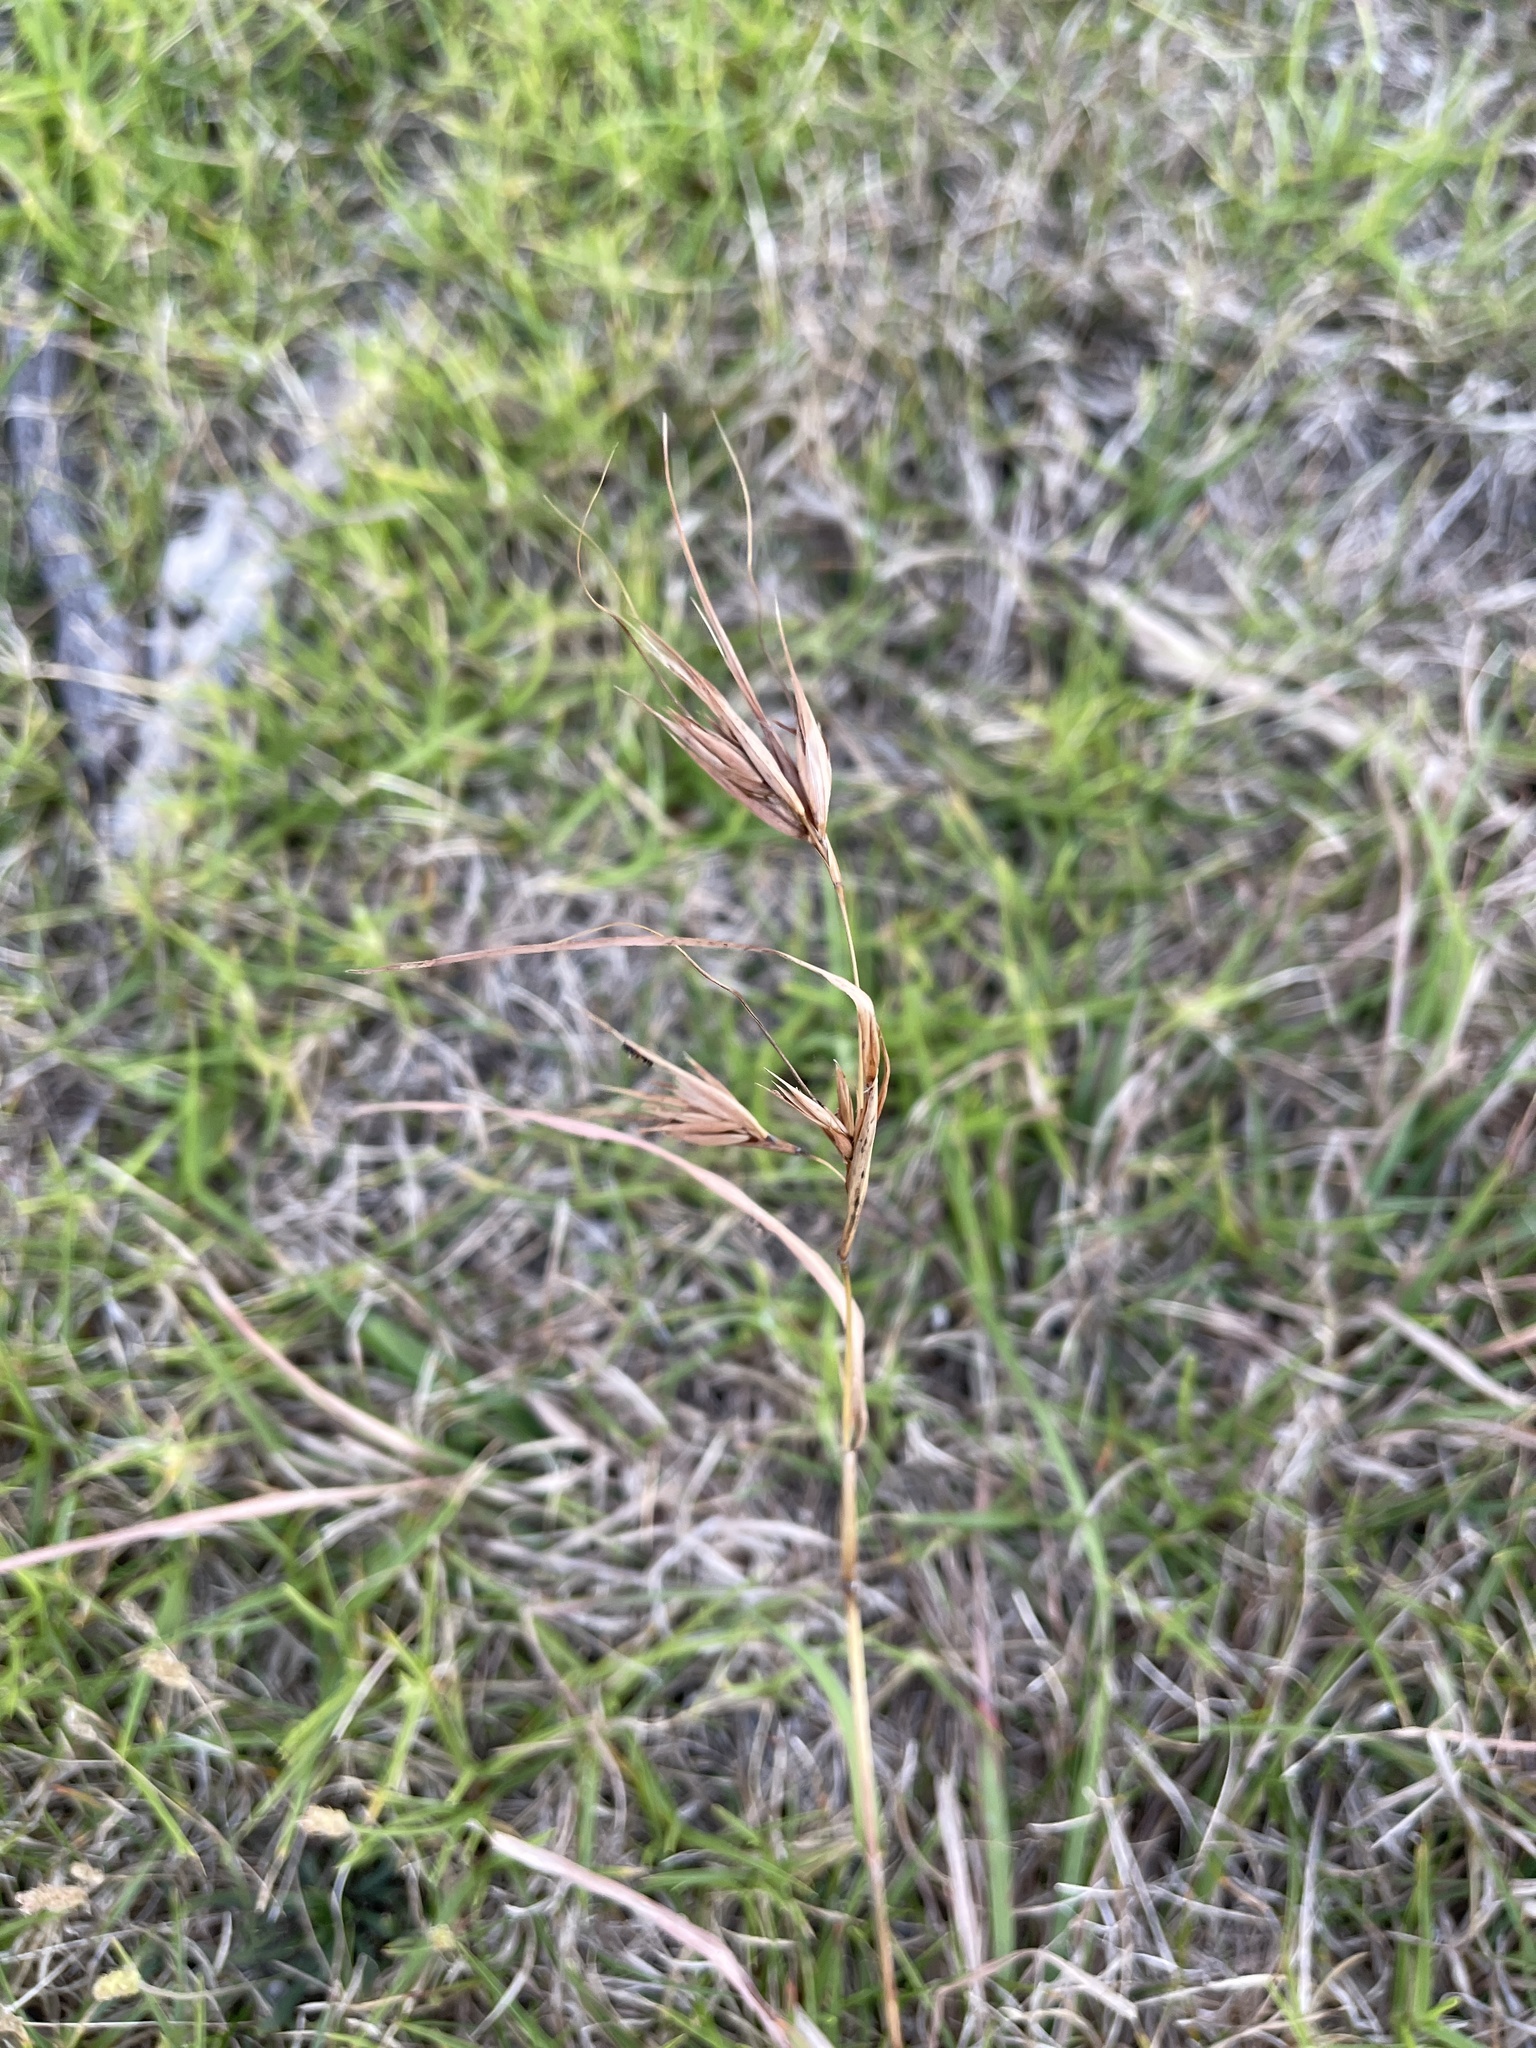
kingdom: Plantae
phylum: Tracheophyta
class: Liliopsida
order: Poales
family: Poaceae
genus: Themeda
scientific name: Themeda triandra
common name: Kangaroo grass
